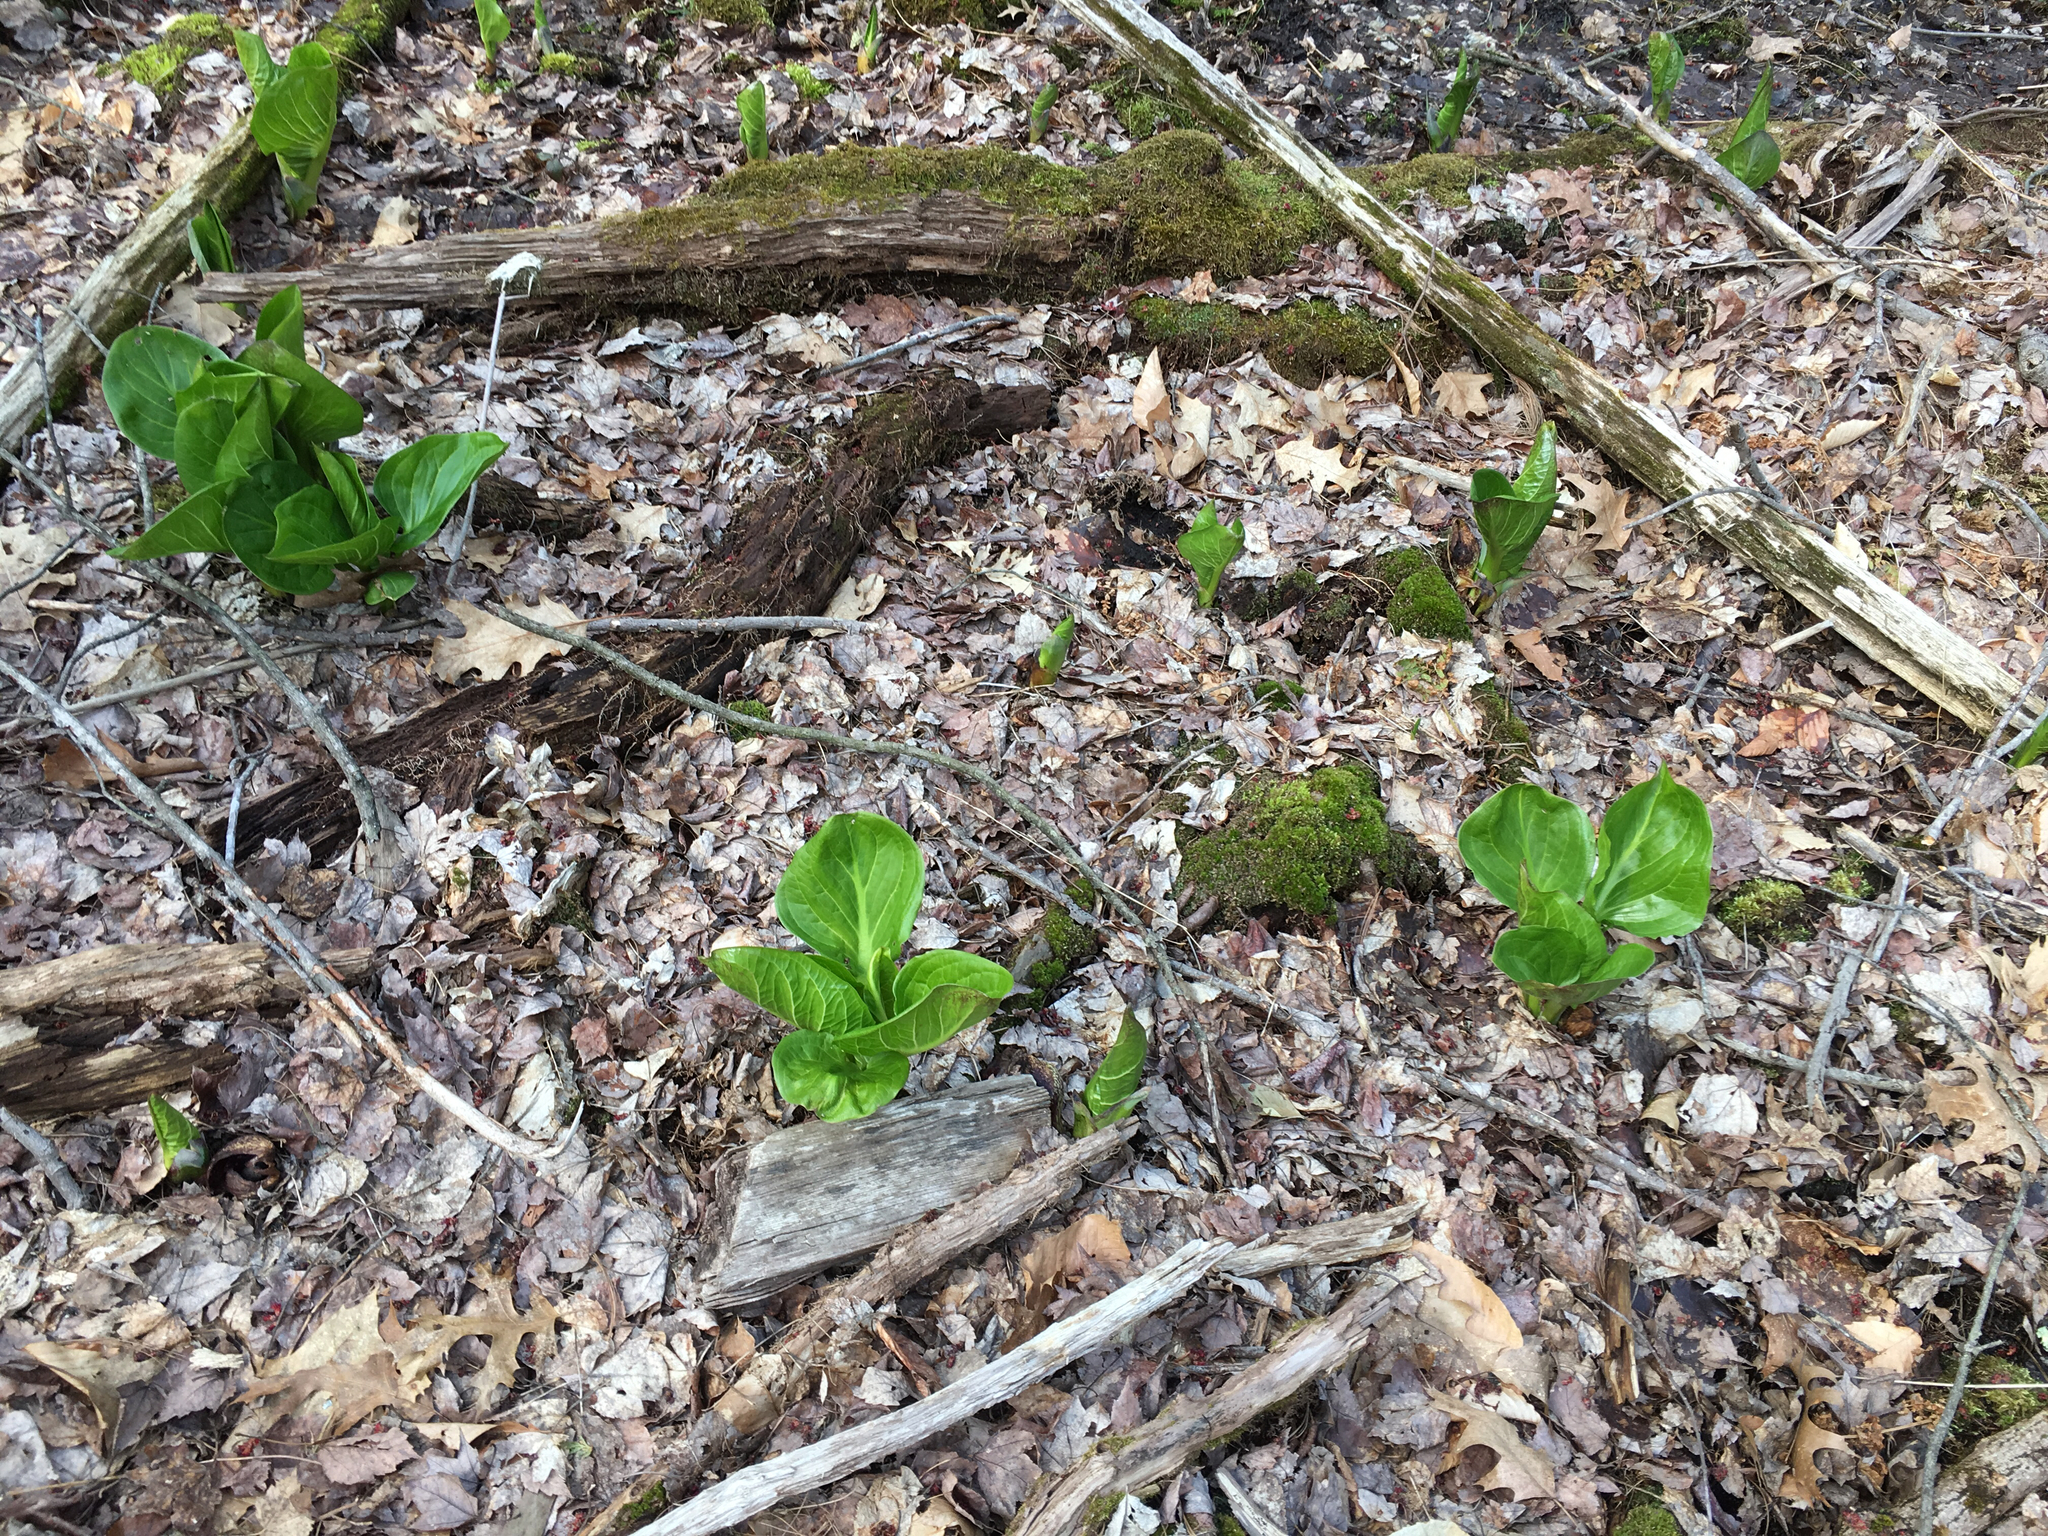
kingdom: Plantae
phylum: Tracheophyta
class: Liliopsida
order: Alismatales
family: Araceae
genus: Symplocarpus
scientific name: Symplocarpus foetidus
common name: Eastern skunk cabbage
